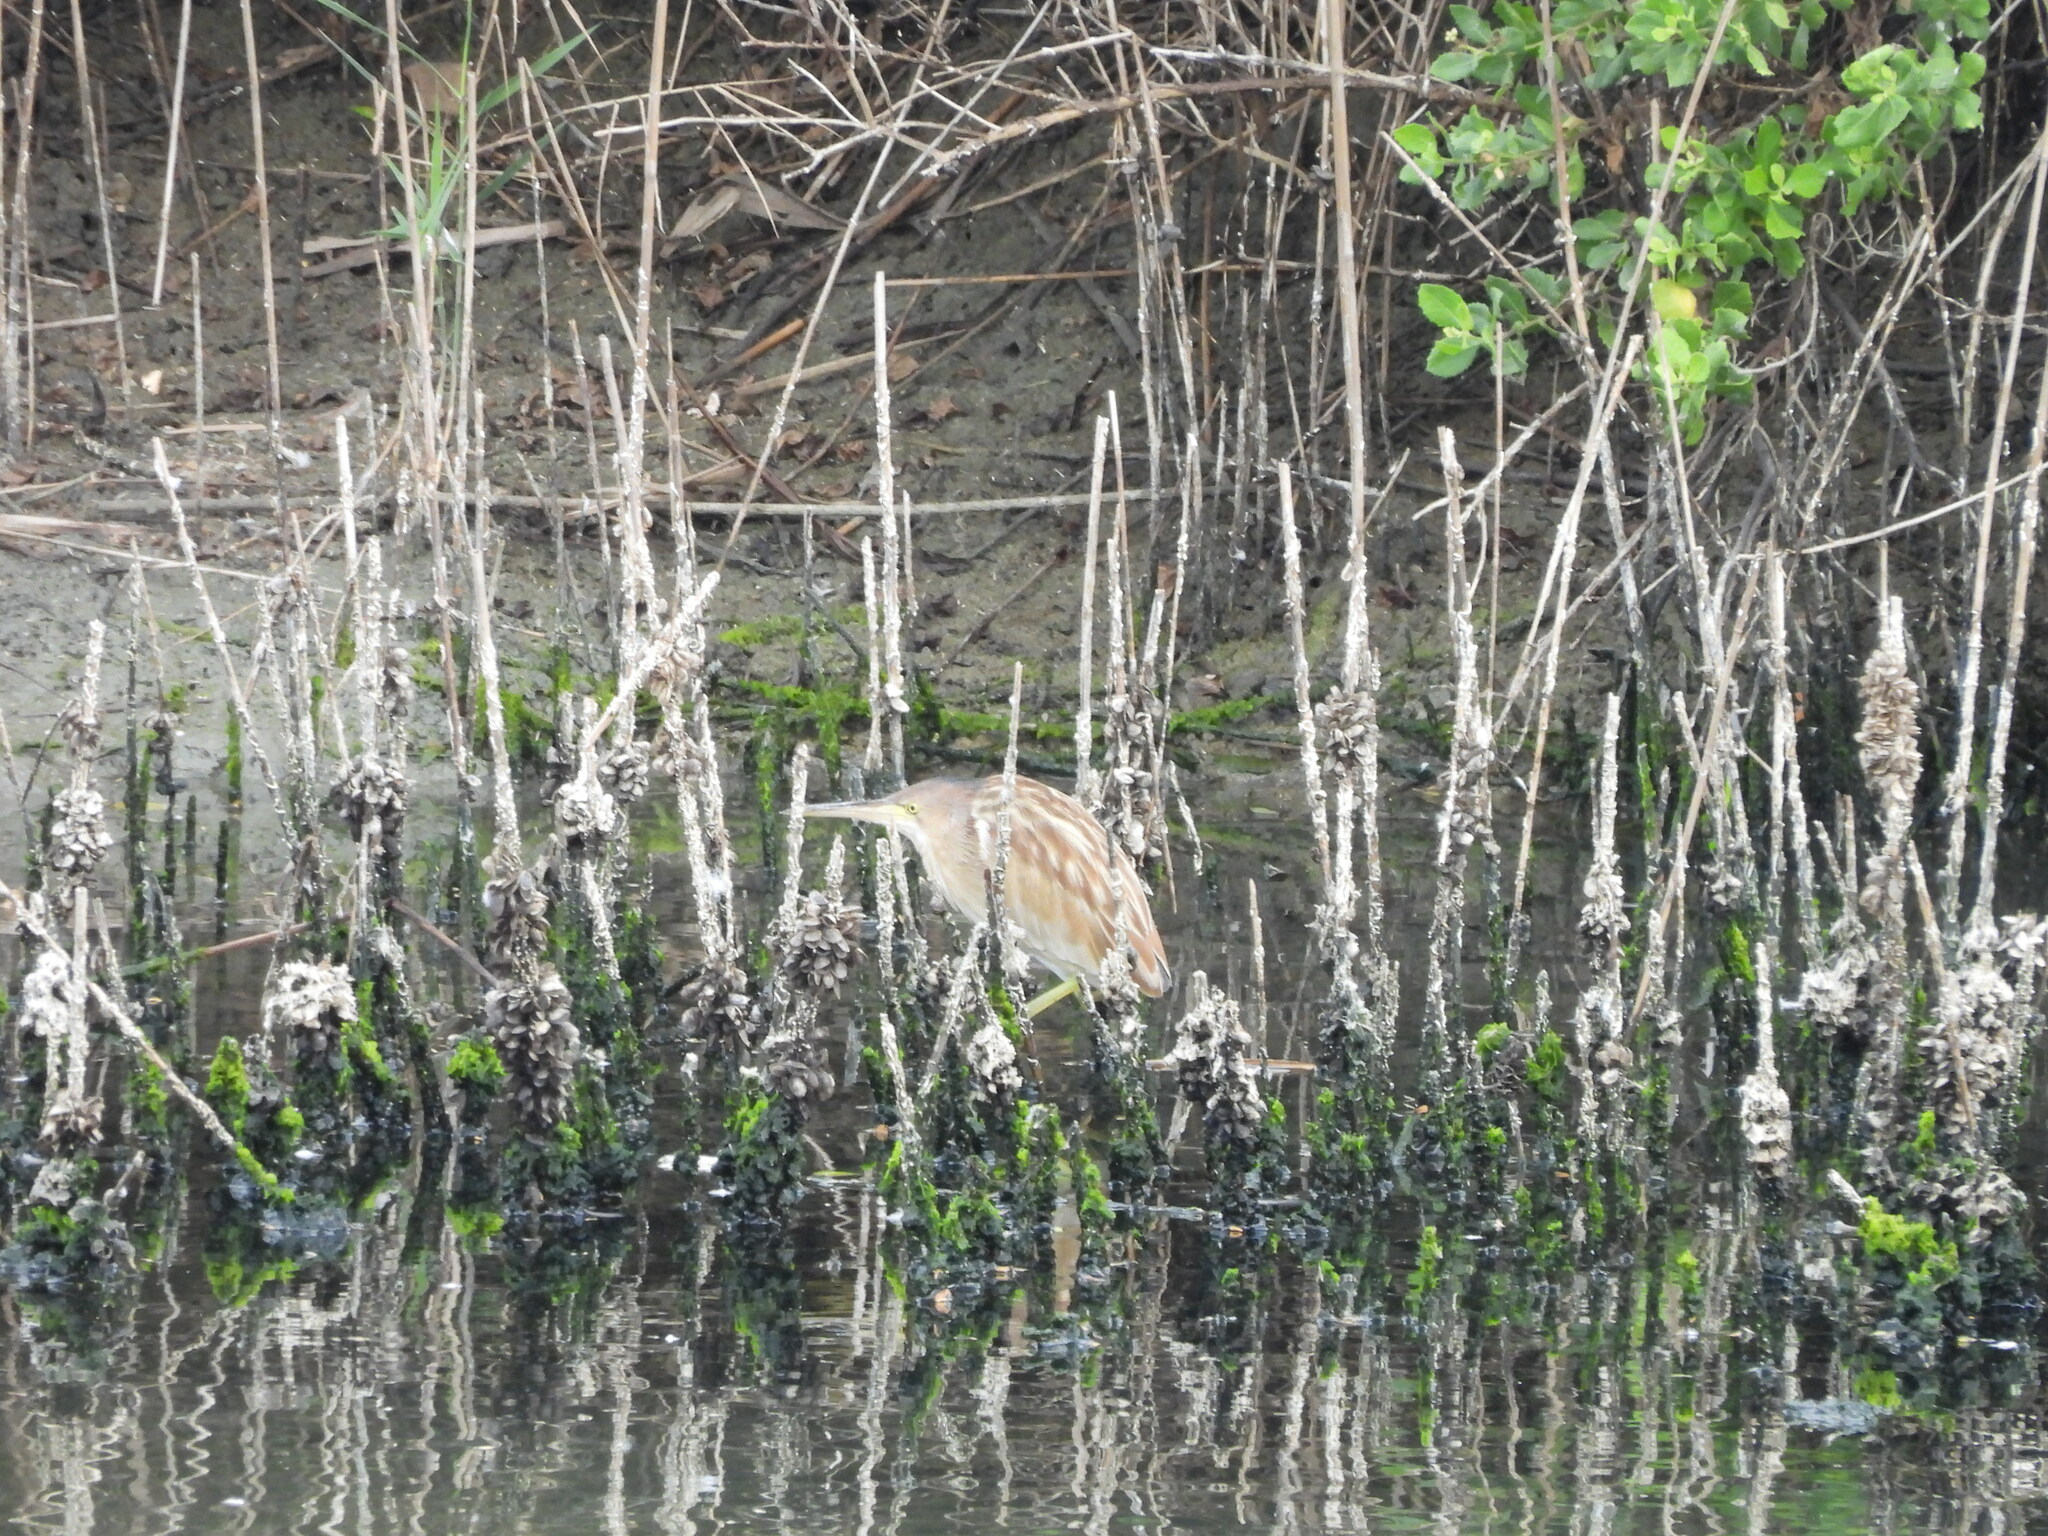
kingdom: Animalia
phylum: Chordata
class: Aves
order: Pelecaniformes
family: Ardeidae
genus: Ixobrychus
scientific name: Ixobrychus sinensis
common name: Yellow bittern
